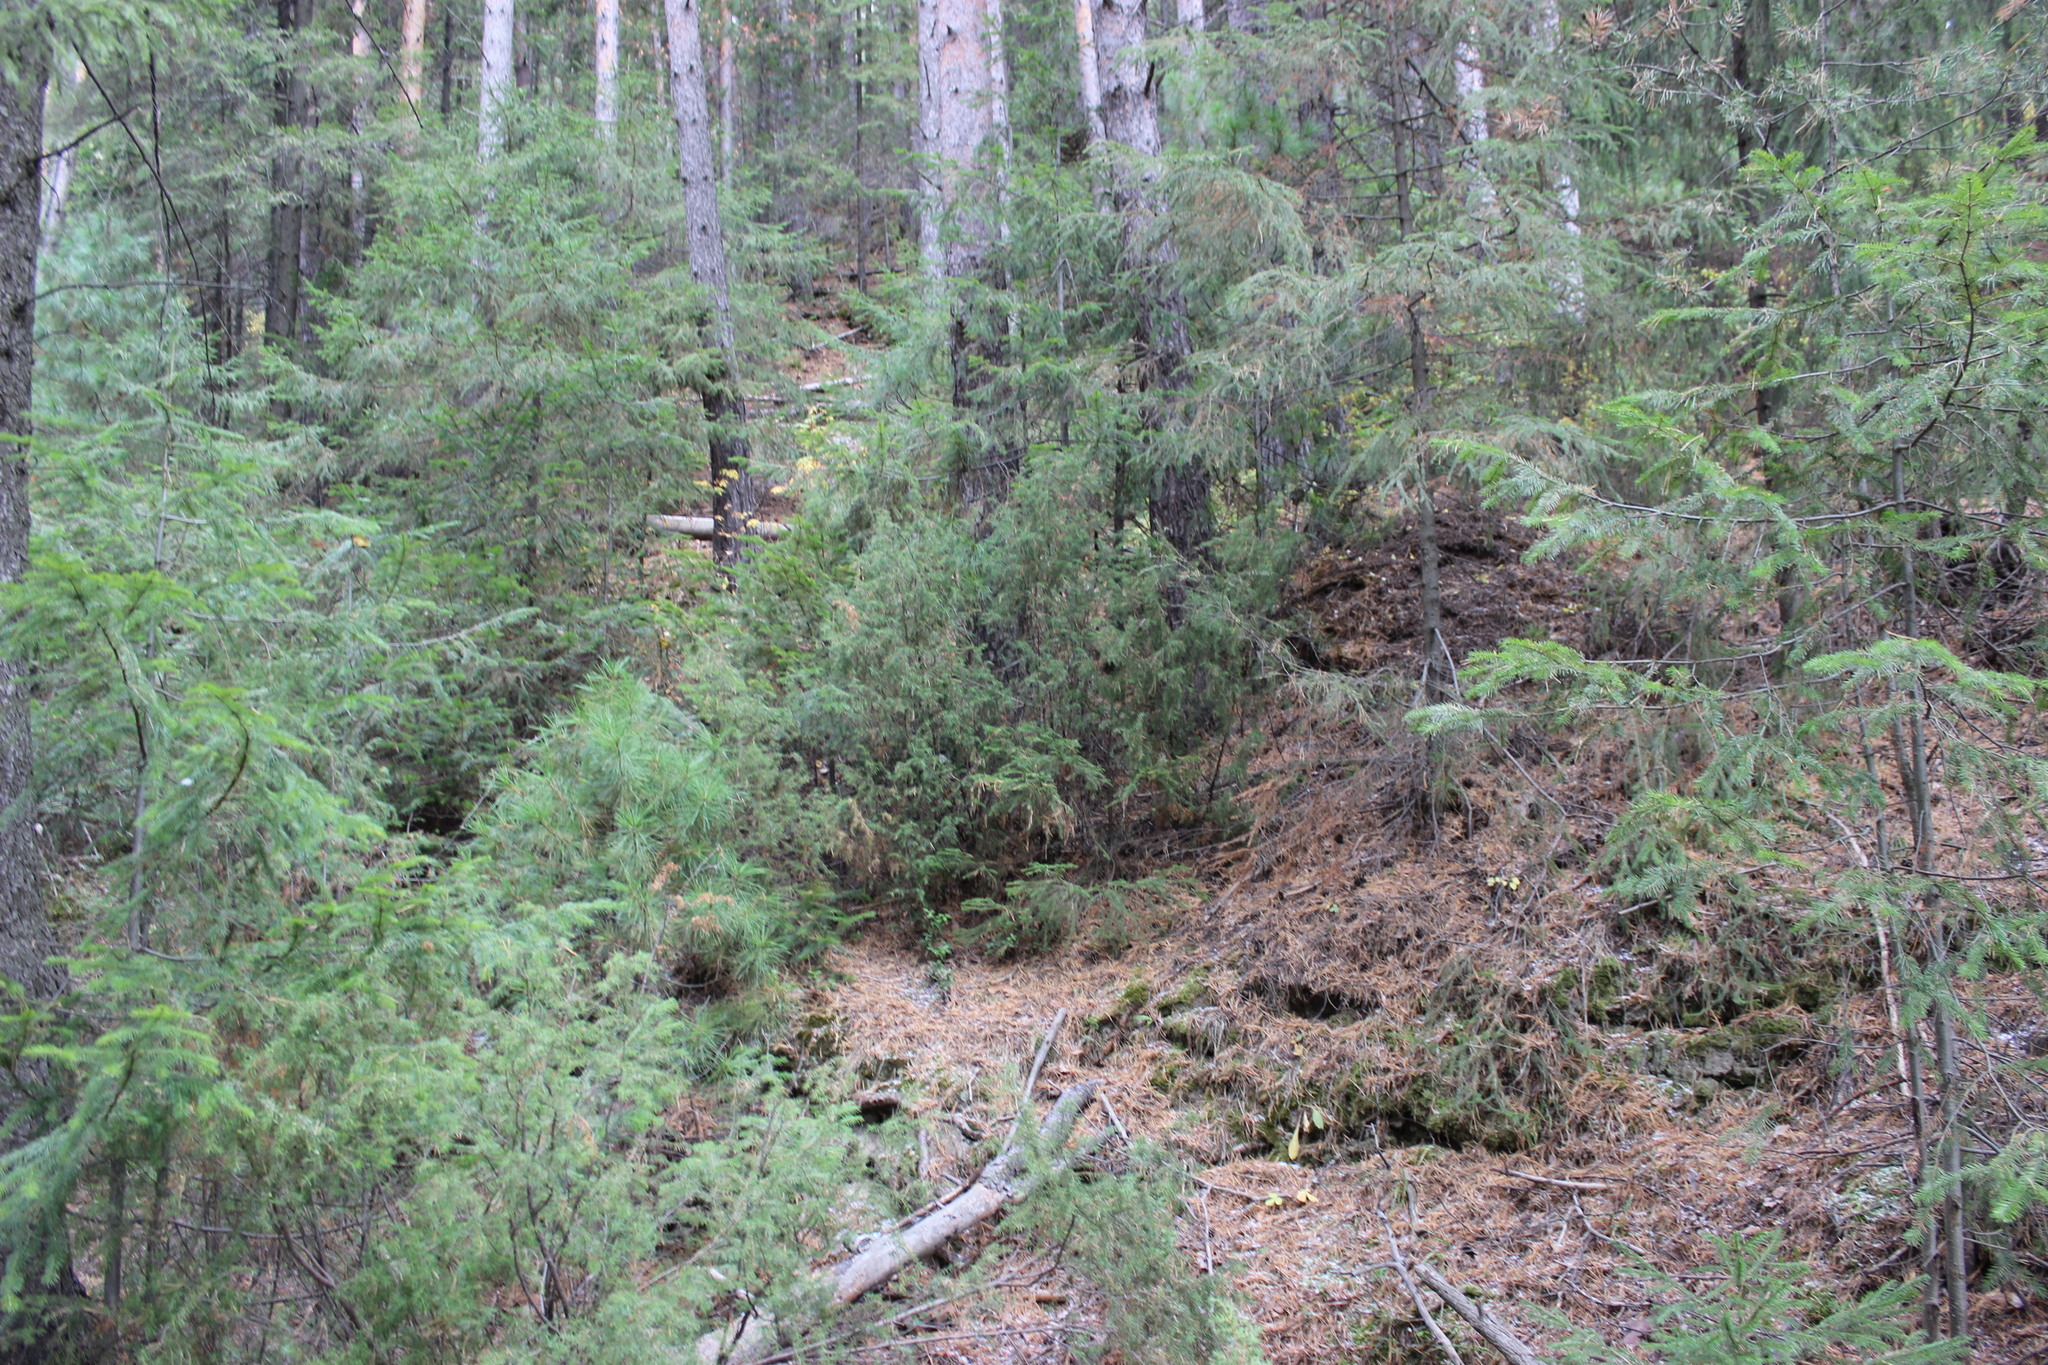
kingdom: Plantae
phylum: Tracheophyta
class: Pinopsida
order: Pinales
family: Cupressaceae
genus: Juniperus
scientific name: Juniperus communis
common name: Common juniper
